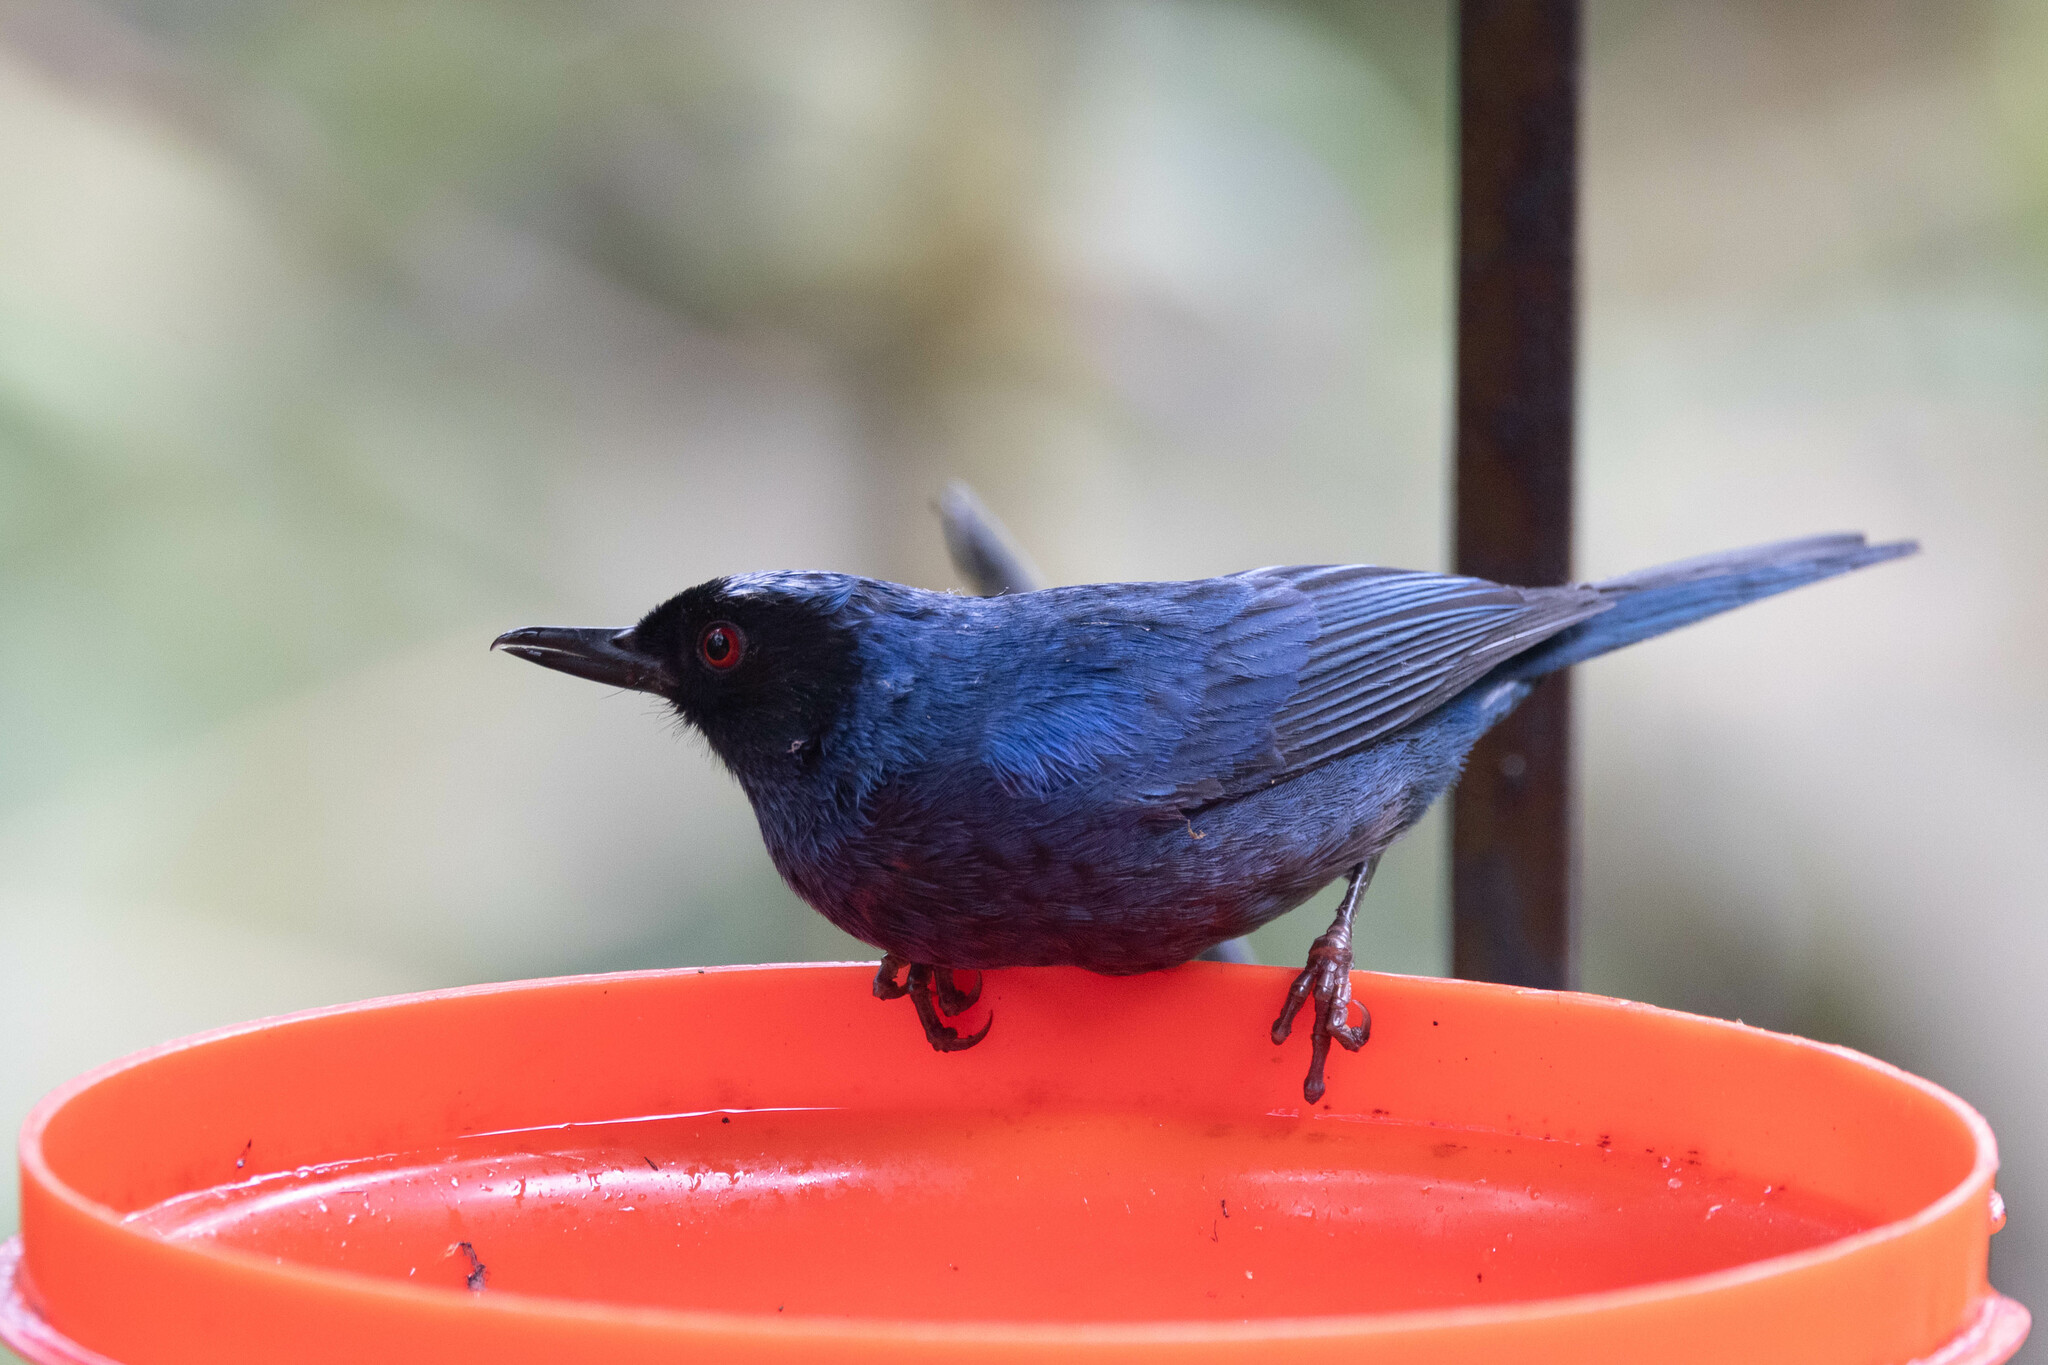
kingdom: Animalia
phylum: Chordata
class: Aves
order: Passeriformes
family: Thraupidae
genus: Diglossa
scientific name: Diglossa cyanea
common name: Masked flowerpiercer
